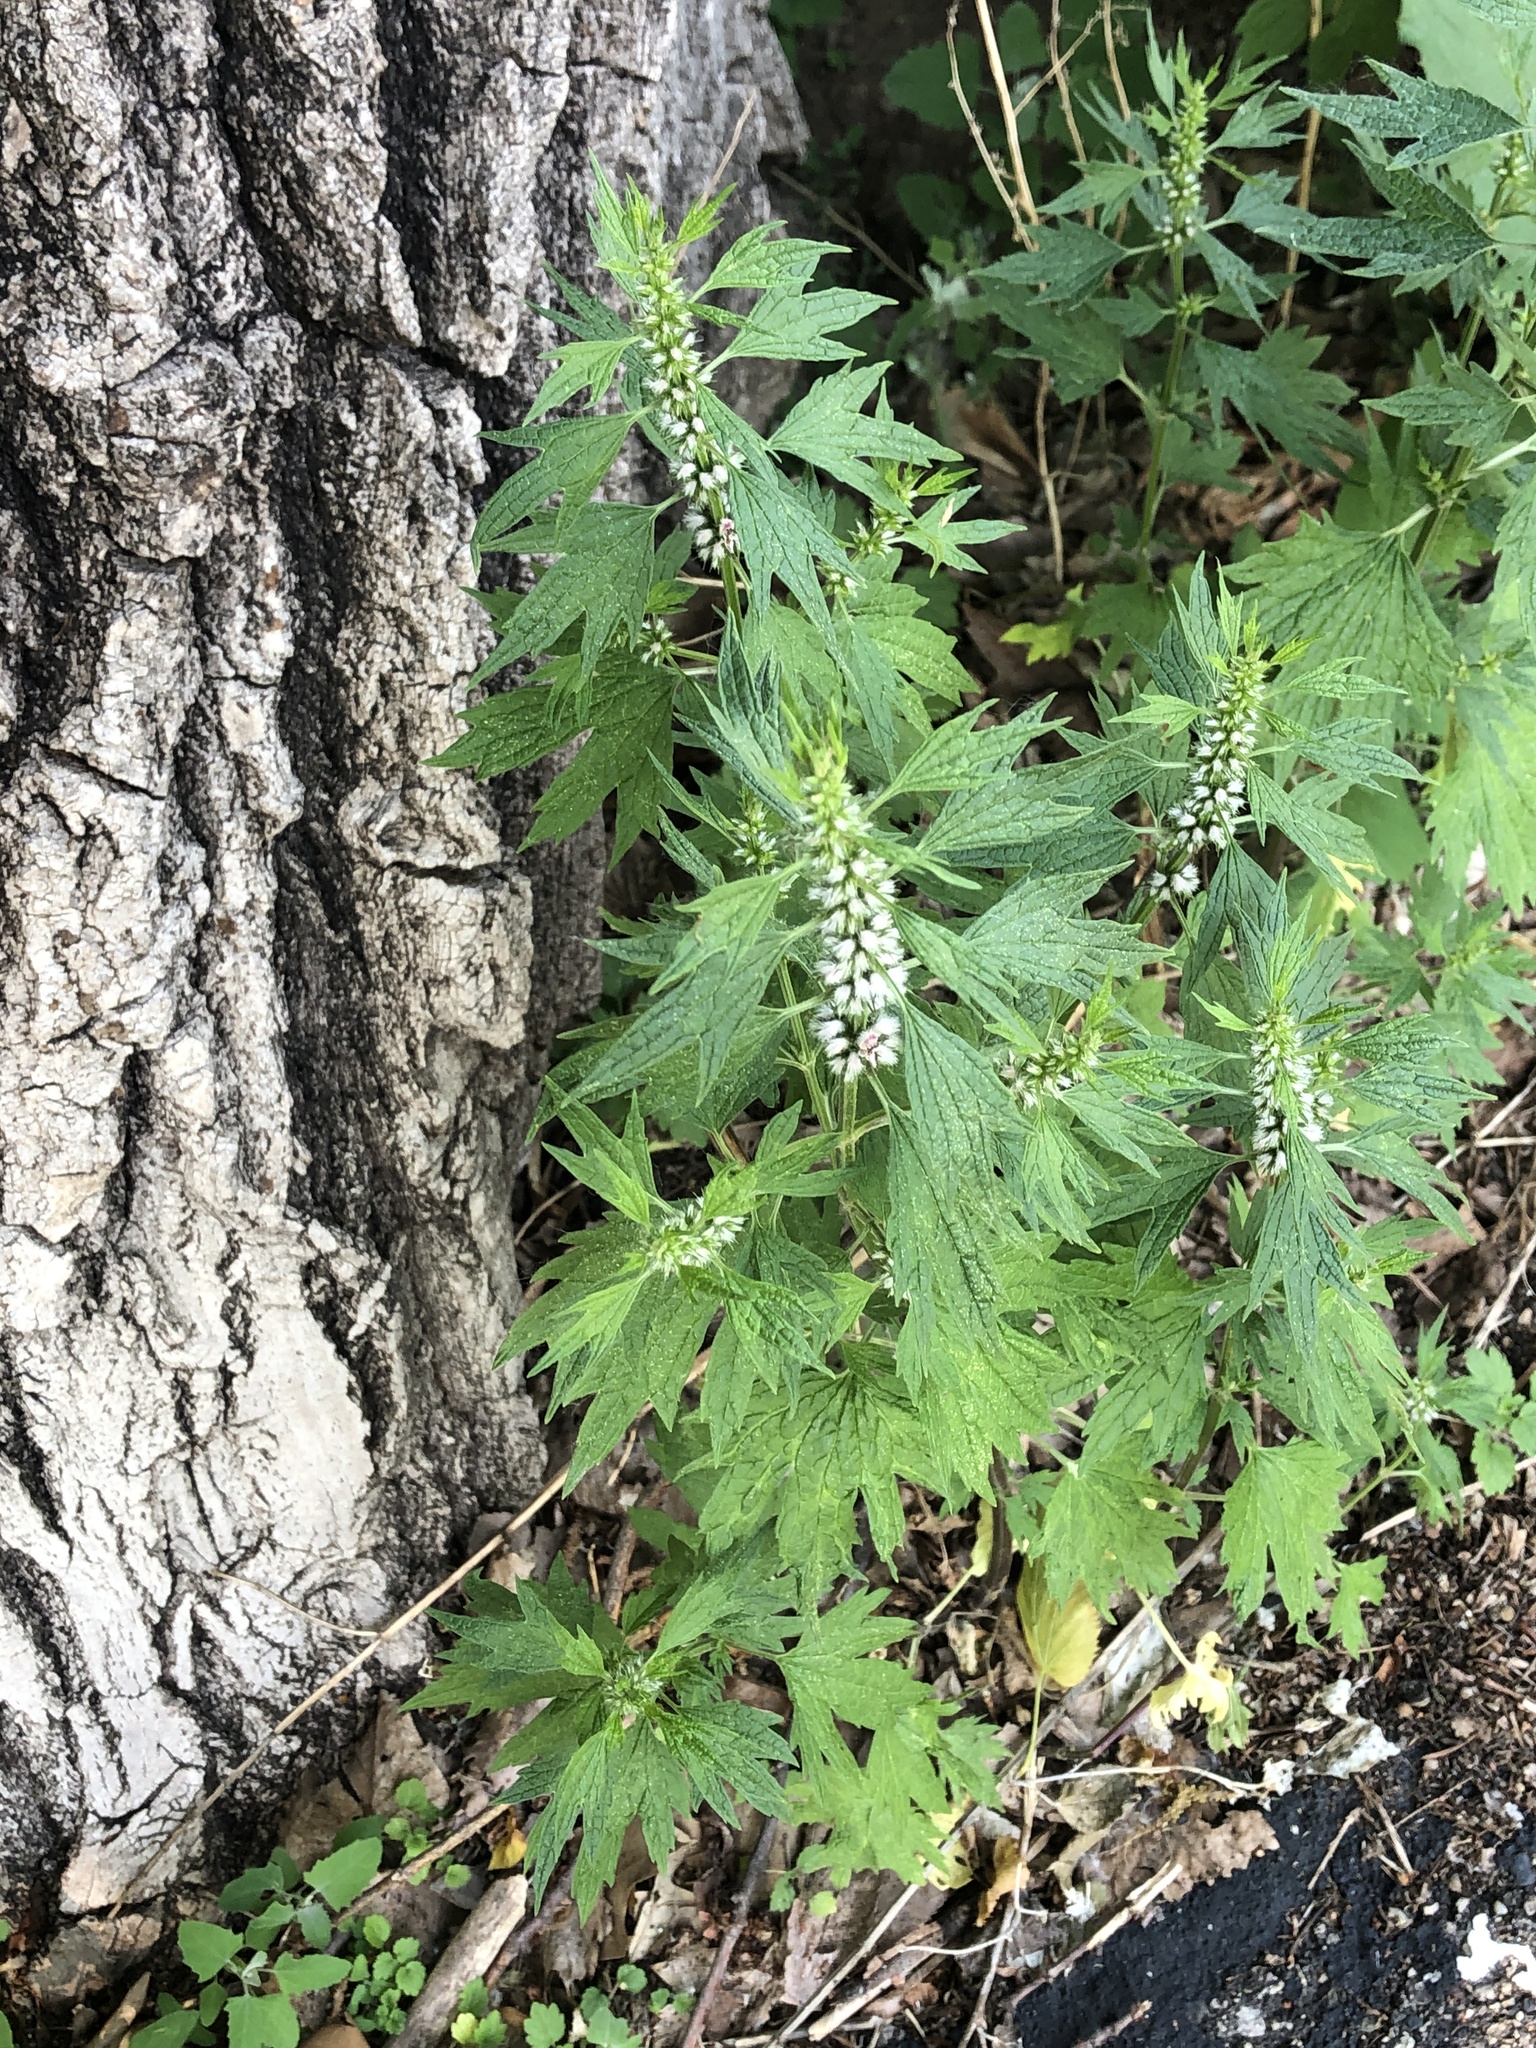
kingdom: Plantae
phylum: Tracheophyta
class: Magnoliopsida
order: Lamiales
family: Lamiaceae
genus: Leonurus
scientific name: Leonurus cardiaca
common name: Motherwort
